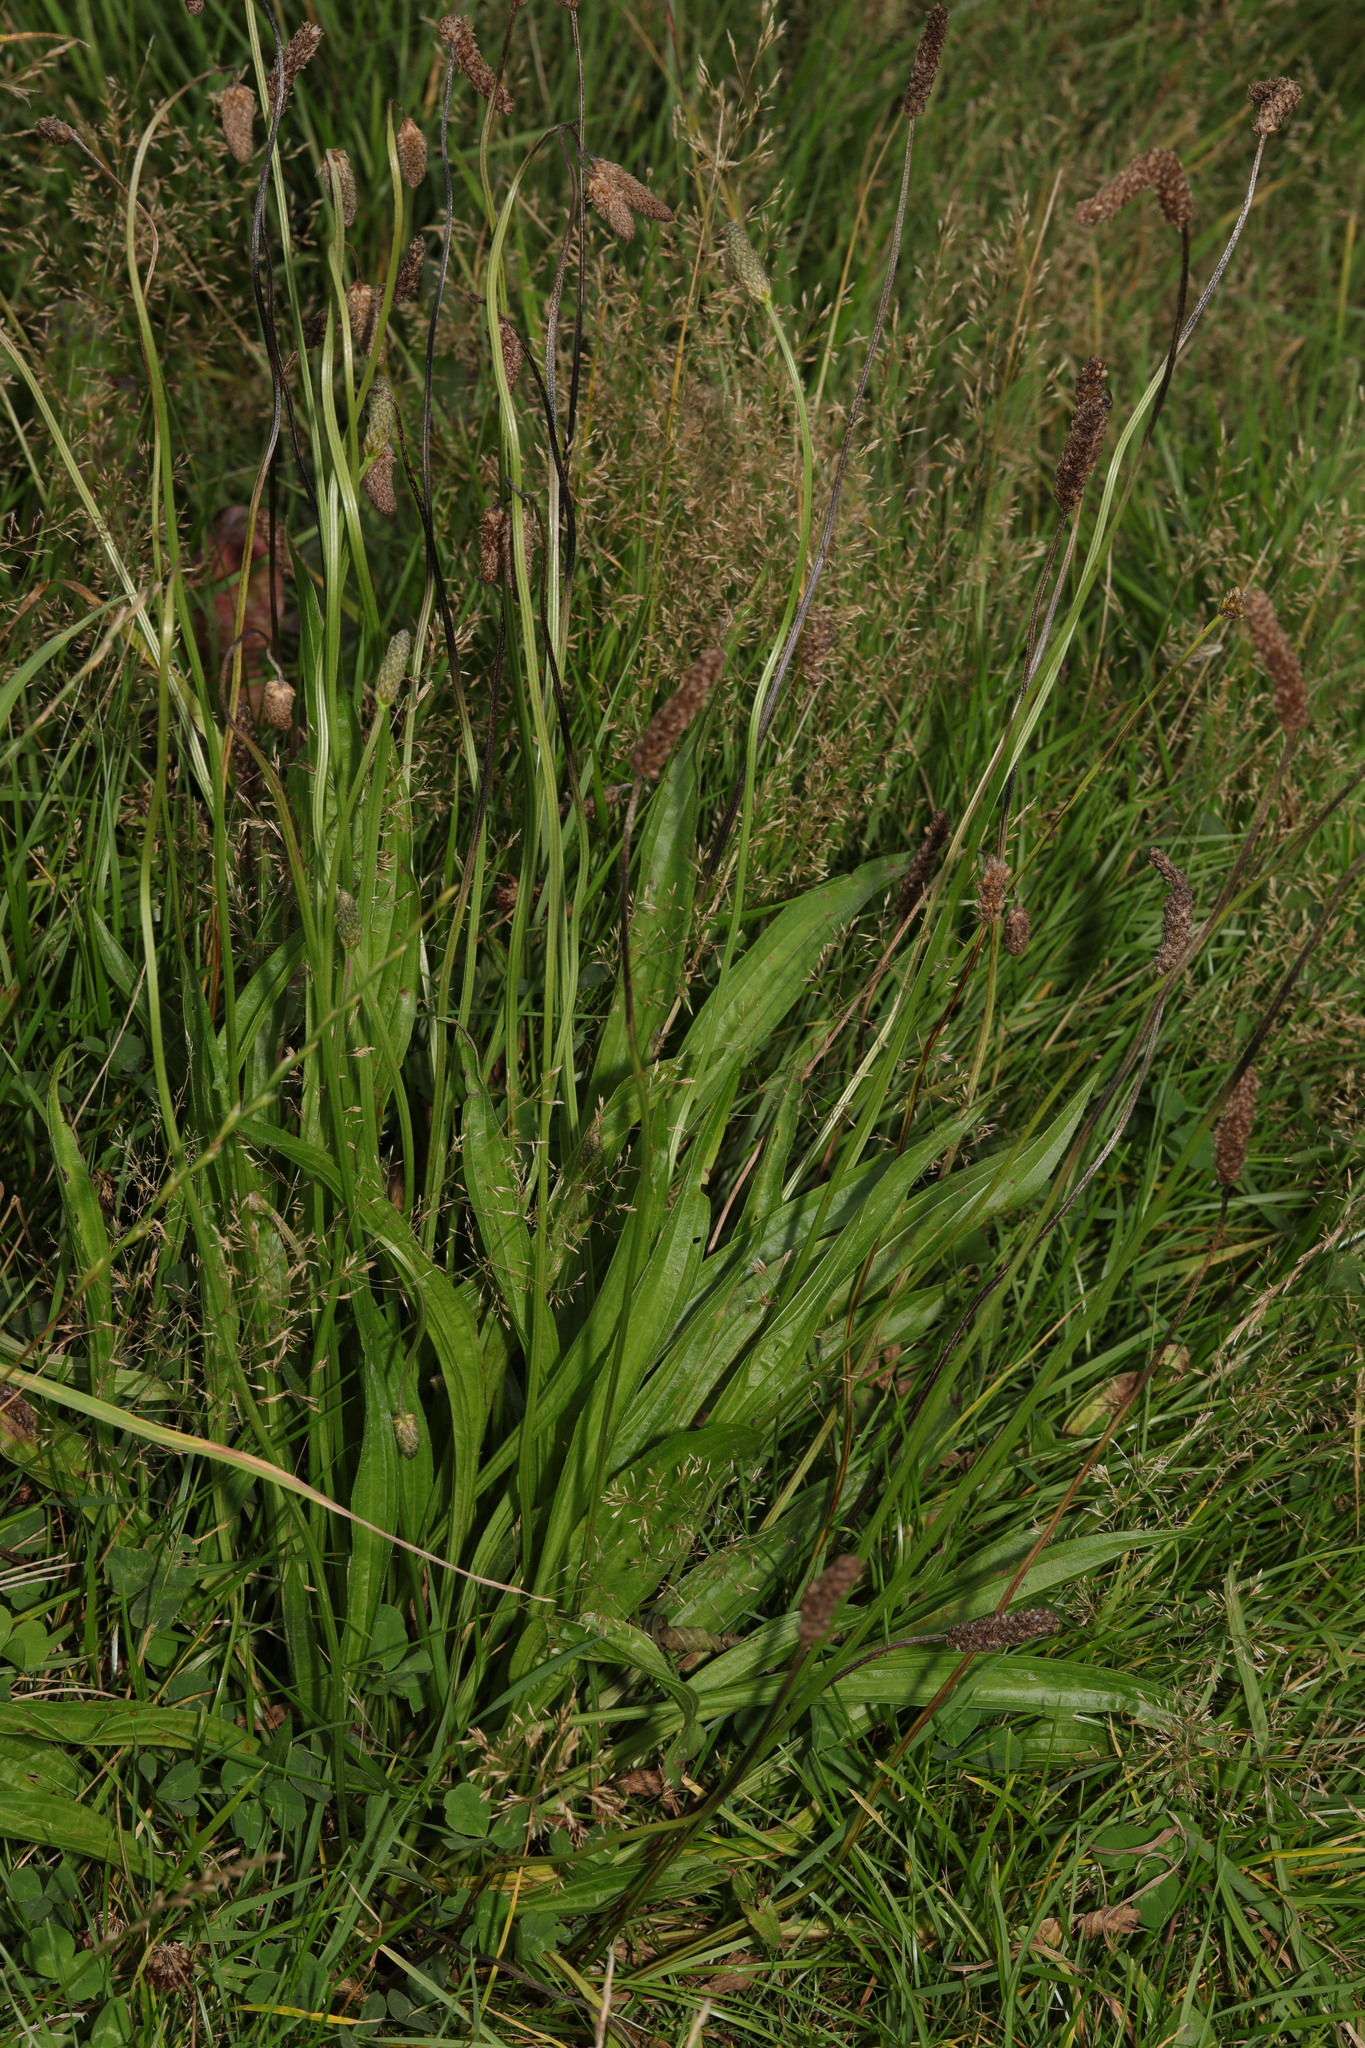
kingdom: Plantae
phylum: Tracheophyta
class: Magnoliopsida
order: Lamiales
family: Plantaginaceae
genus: Plantago
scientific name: Plantago lanceolata
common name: Ribwort plantain
